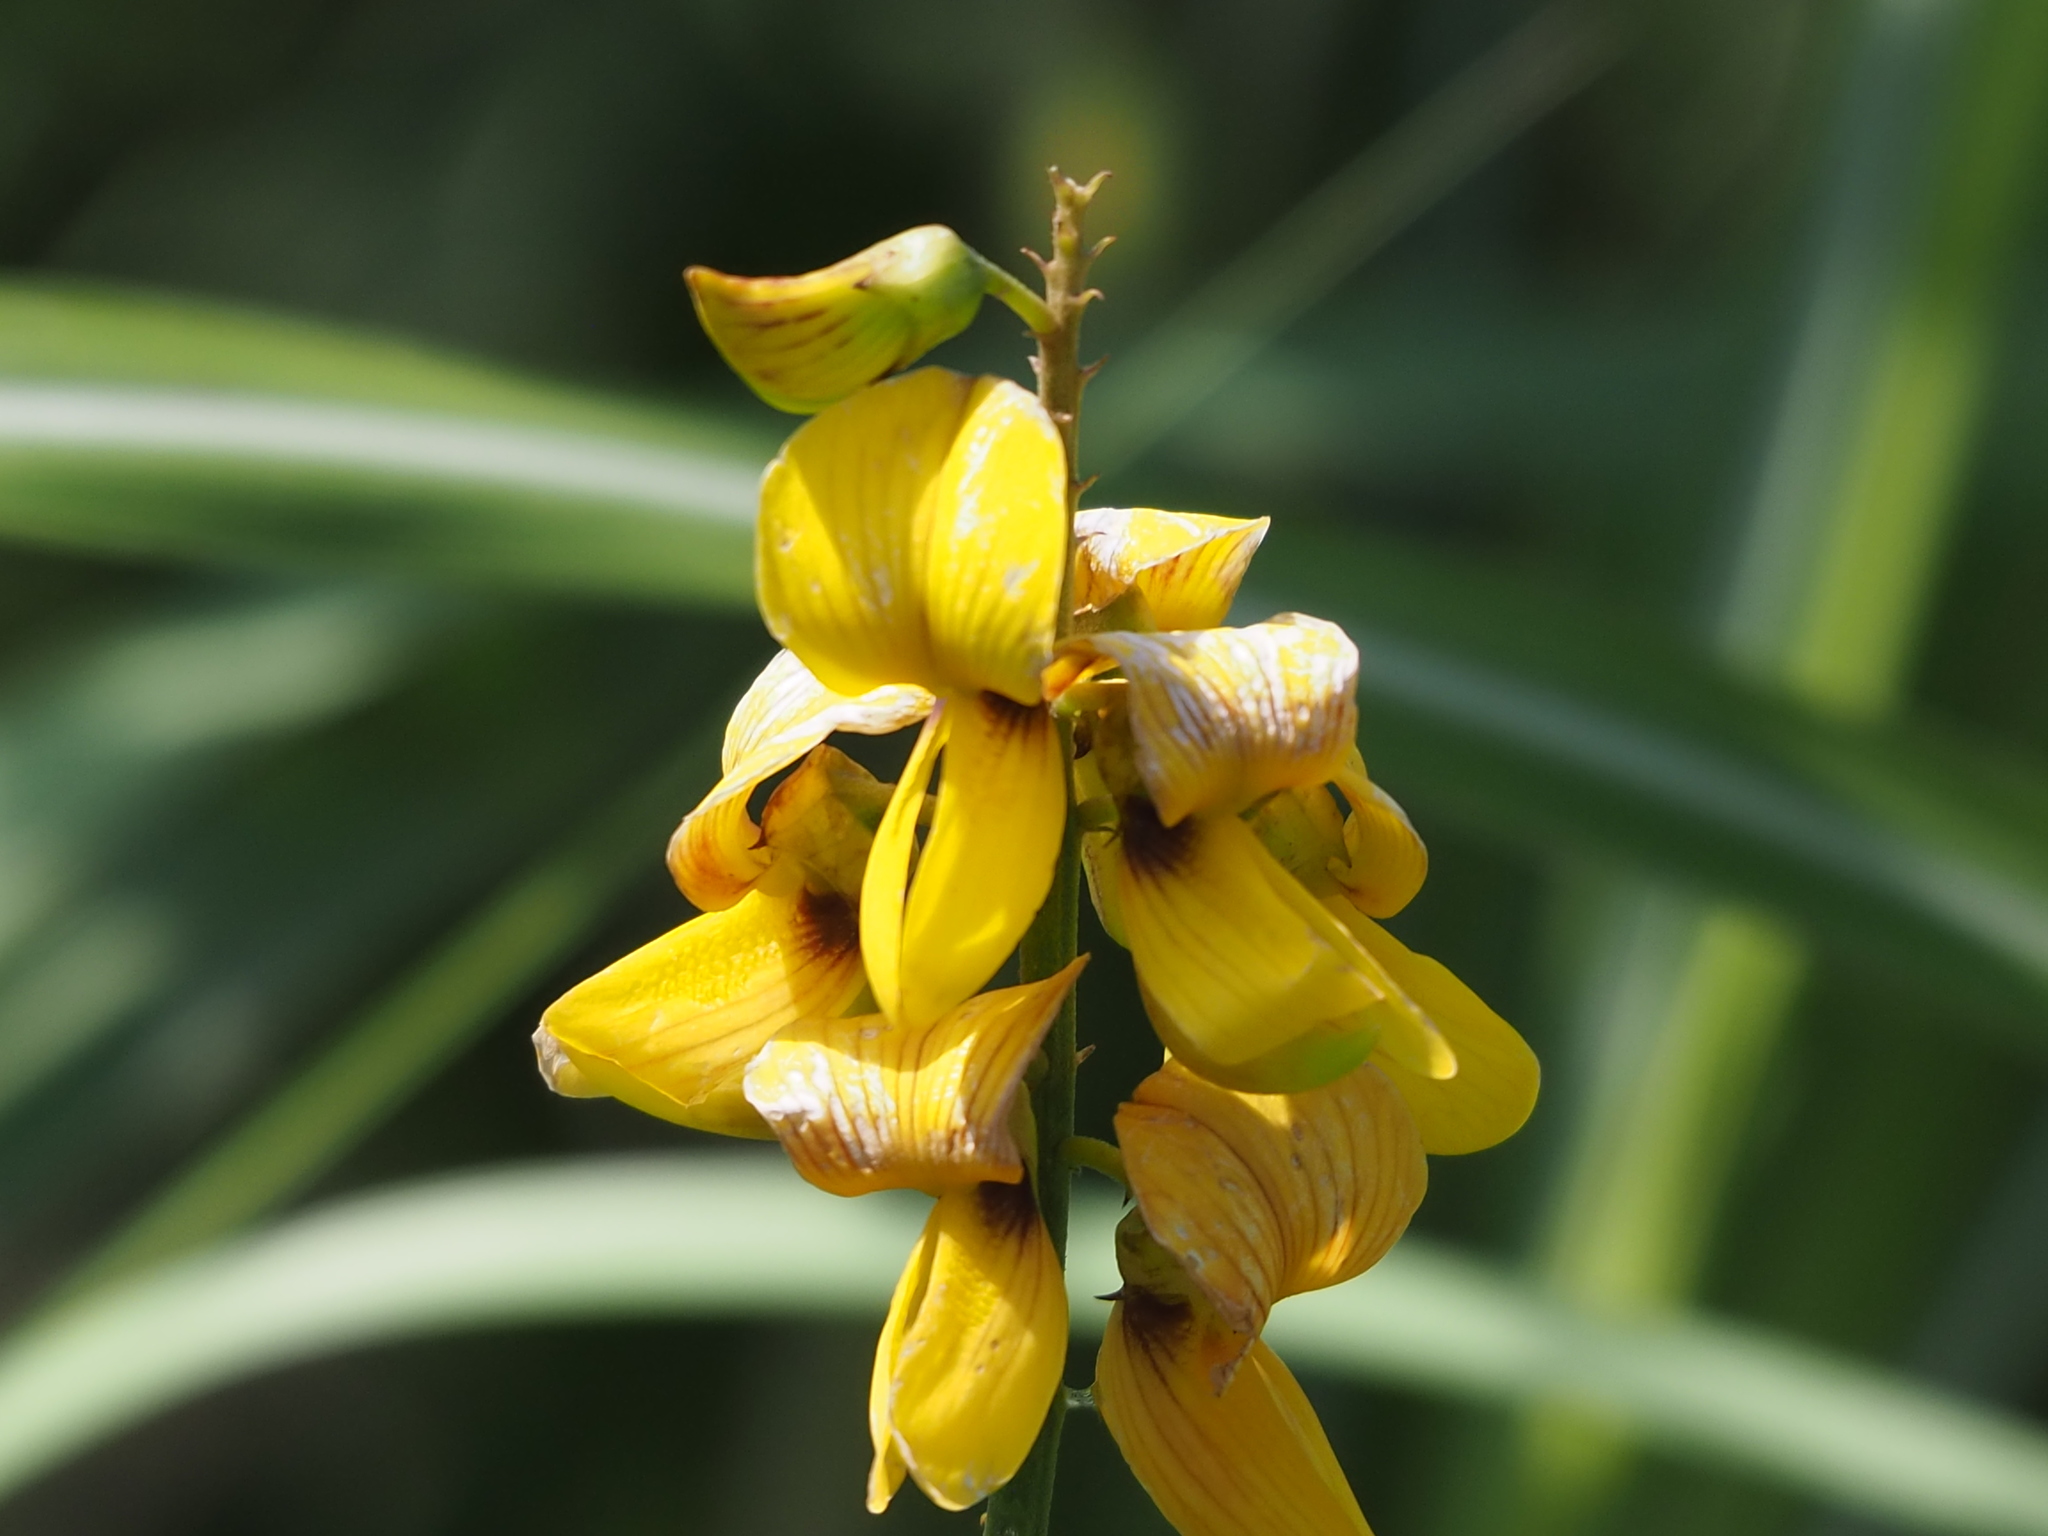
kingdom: Plantae
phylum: Tracheophyta
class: Magnoliopsida
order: Fabales
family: Fabaceae
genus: Crotalaria
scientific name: Crotalaria trichotoma
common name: West indian rattlebox
